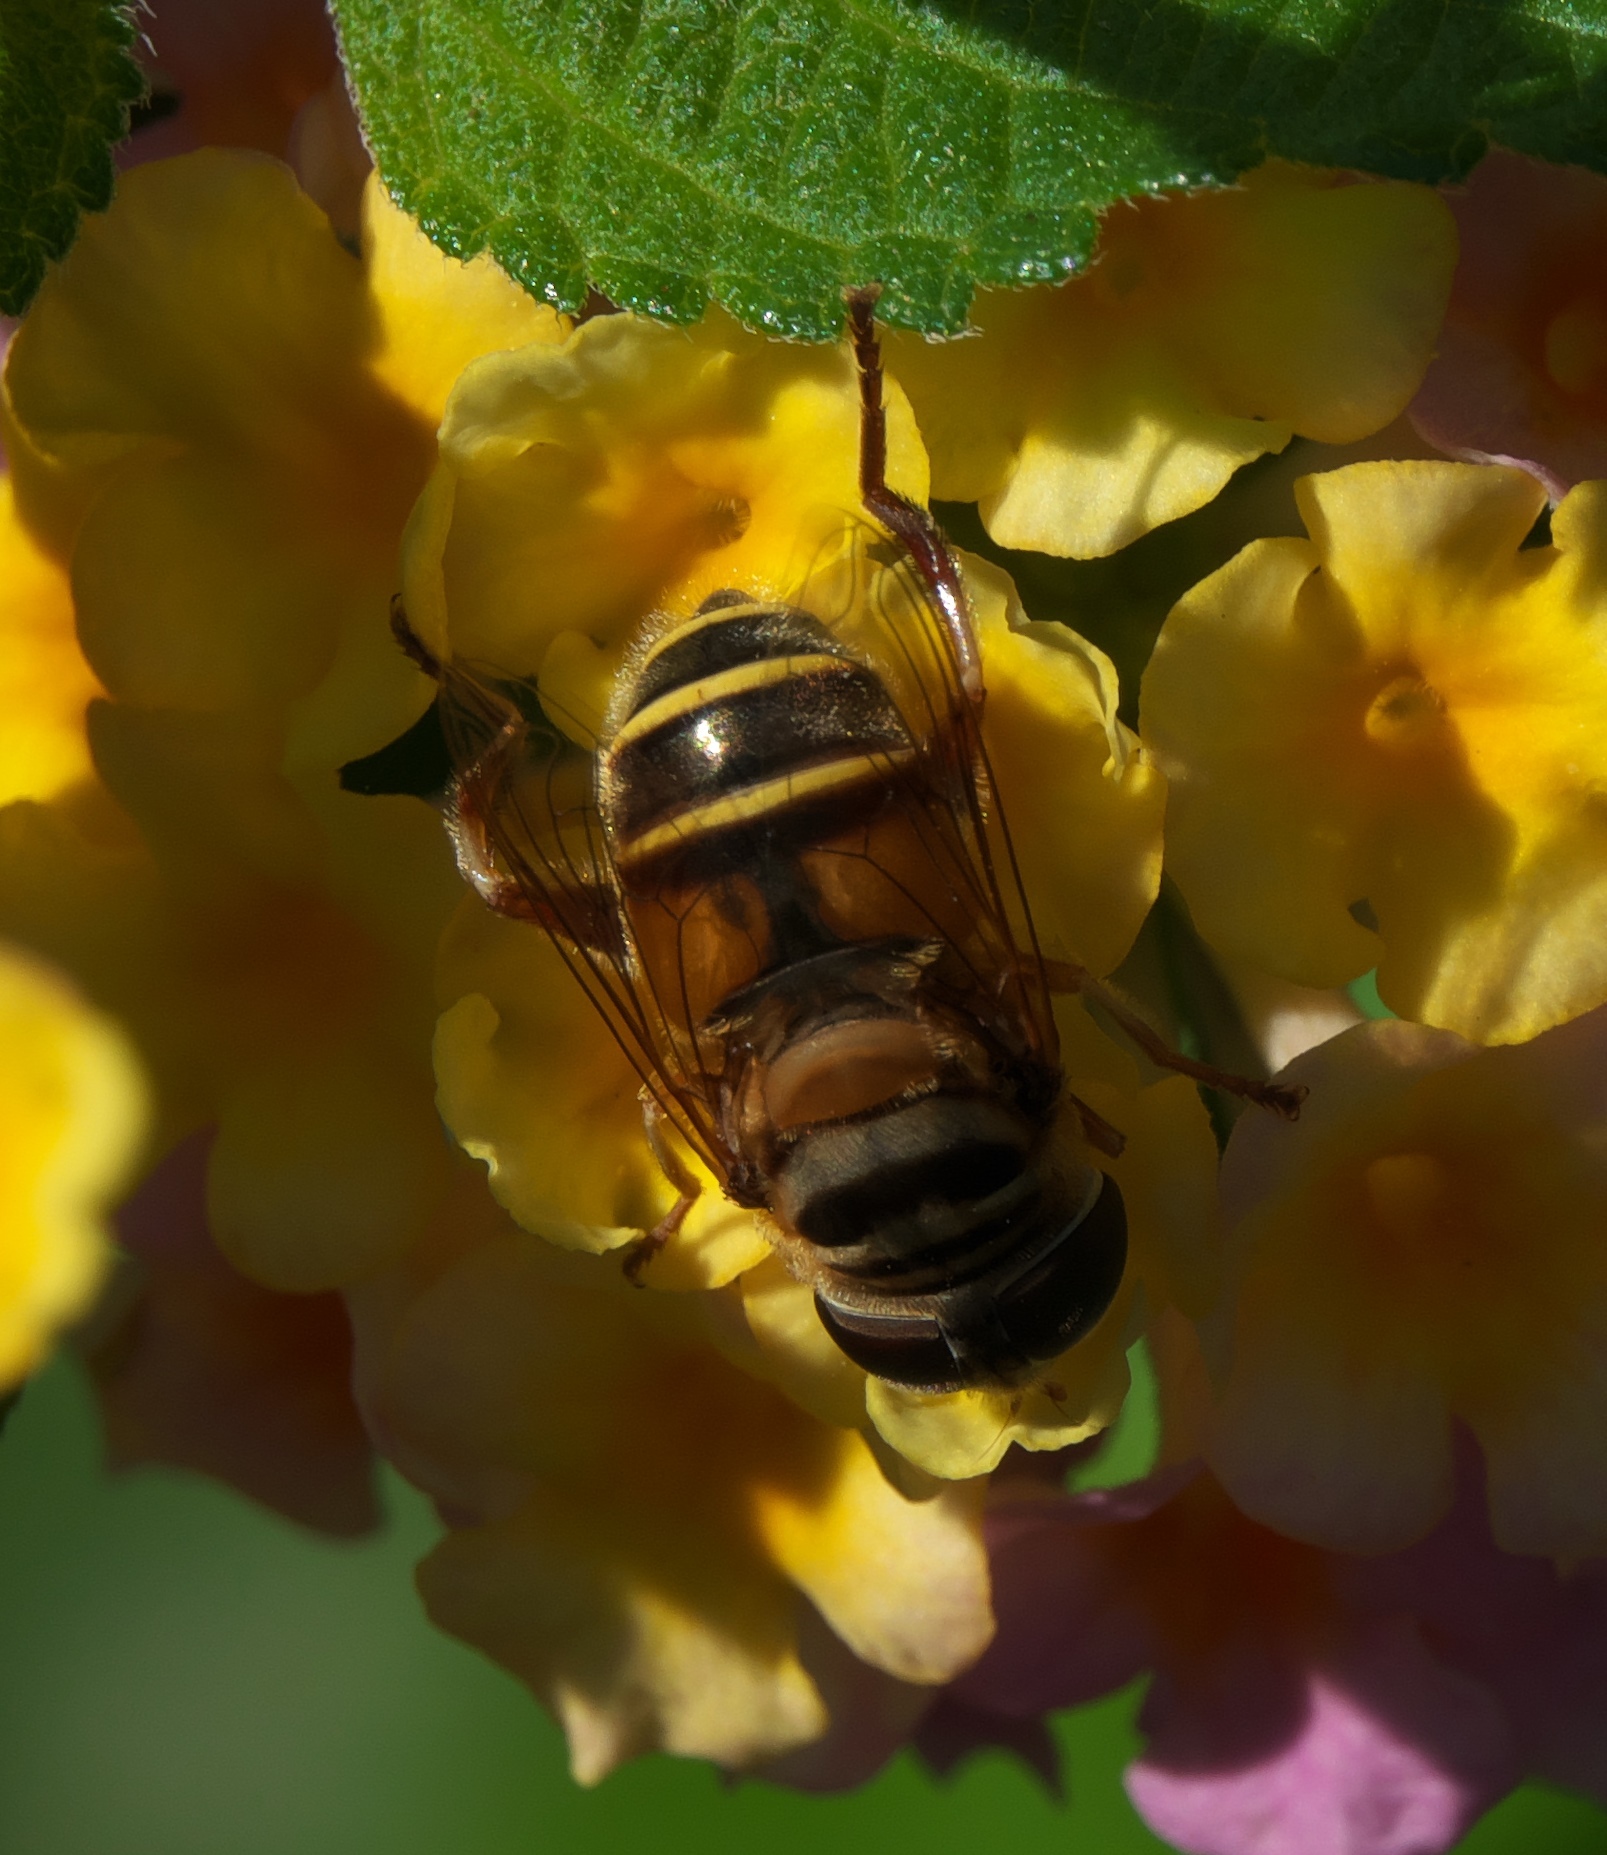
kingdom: Animalia
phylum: Arthropoda
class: Insecta
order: Diptera
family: Syrphidae
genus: Palpada
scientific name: Palpada vinetorum
